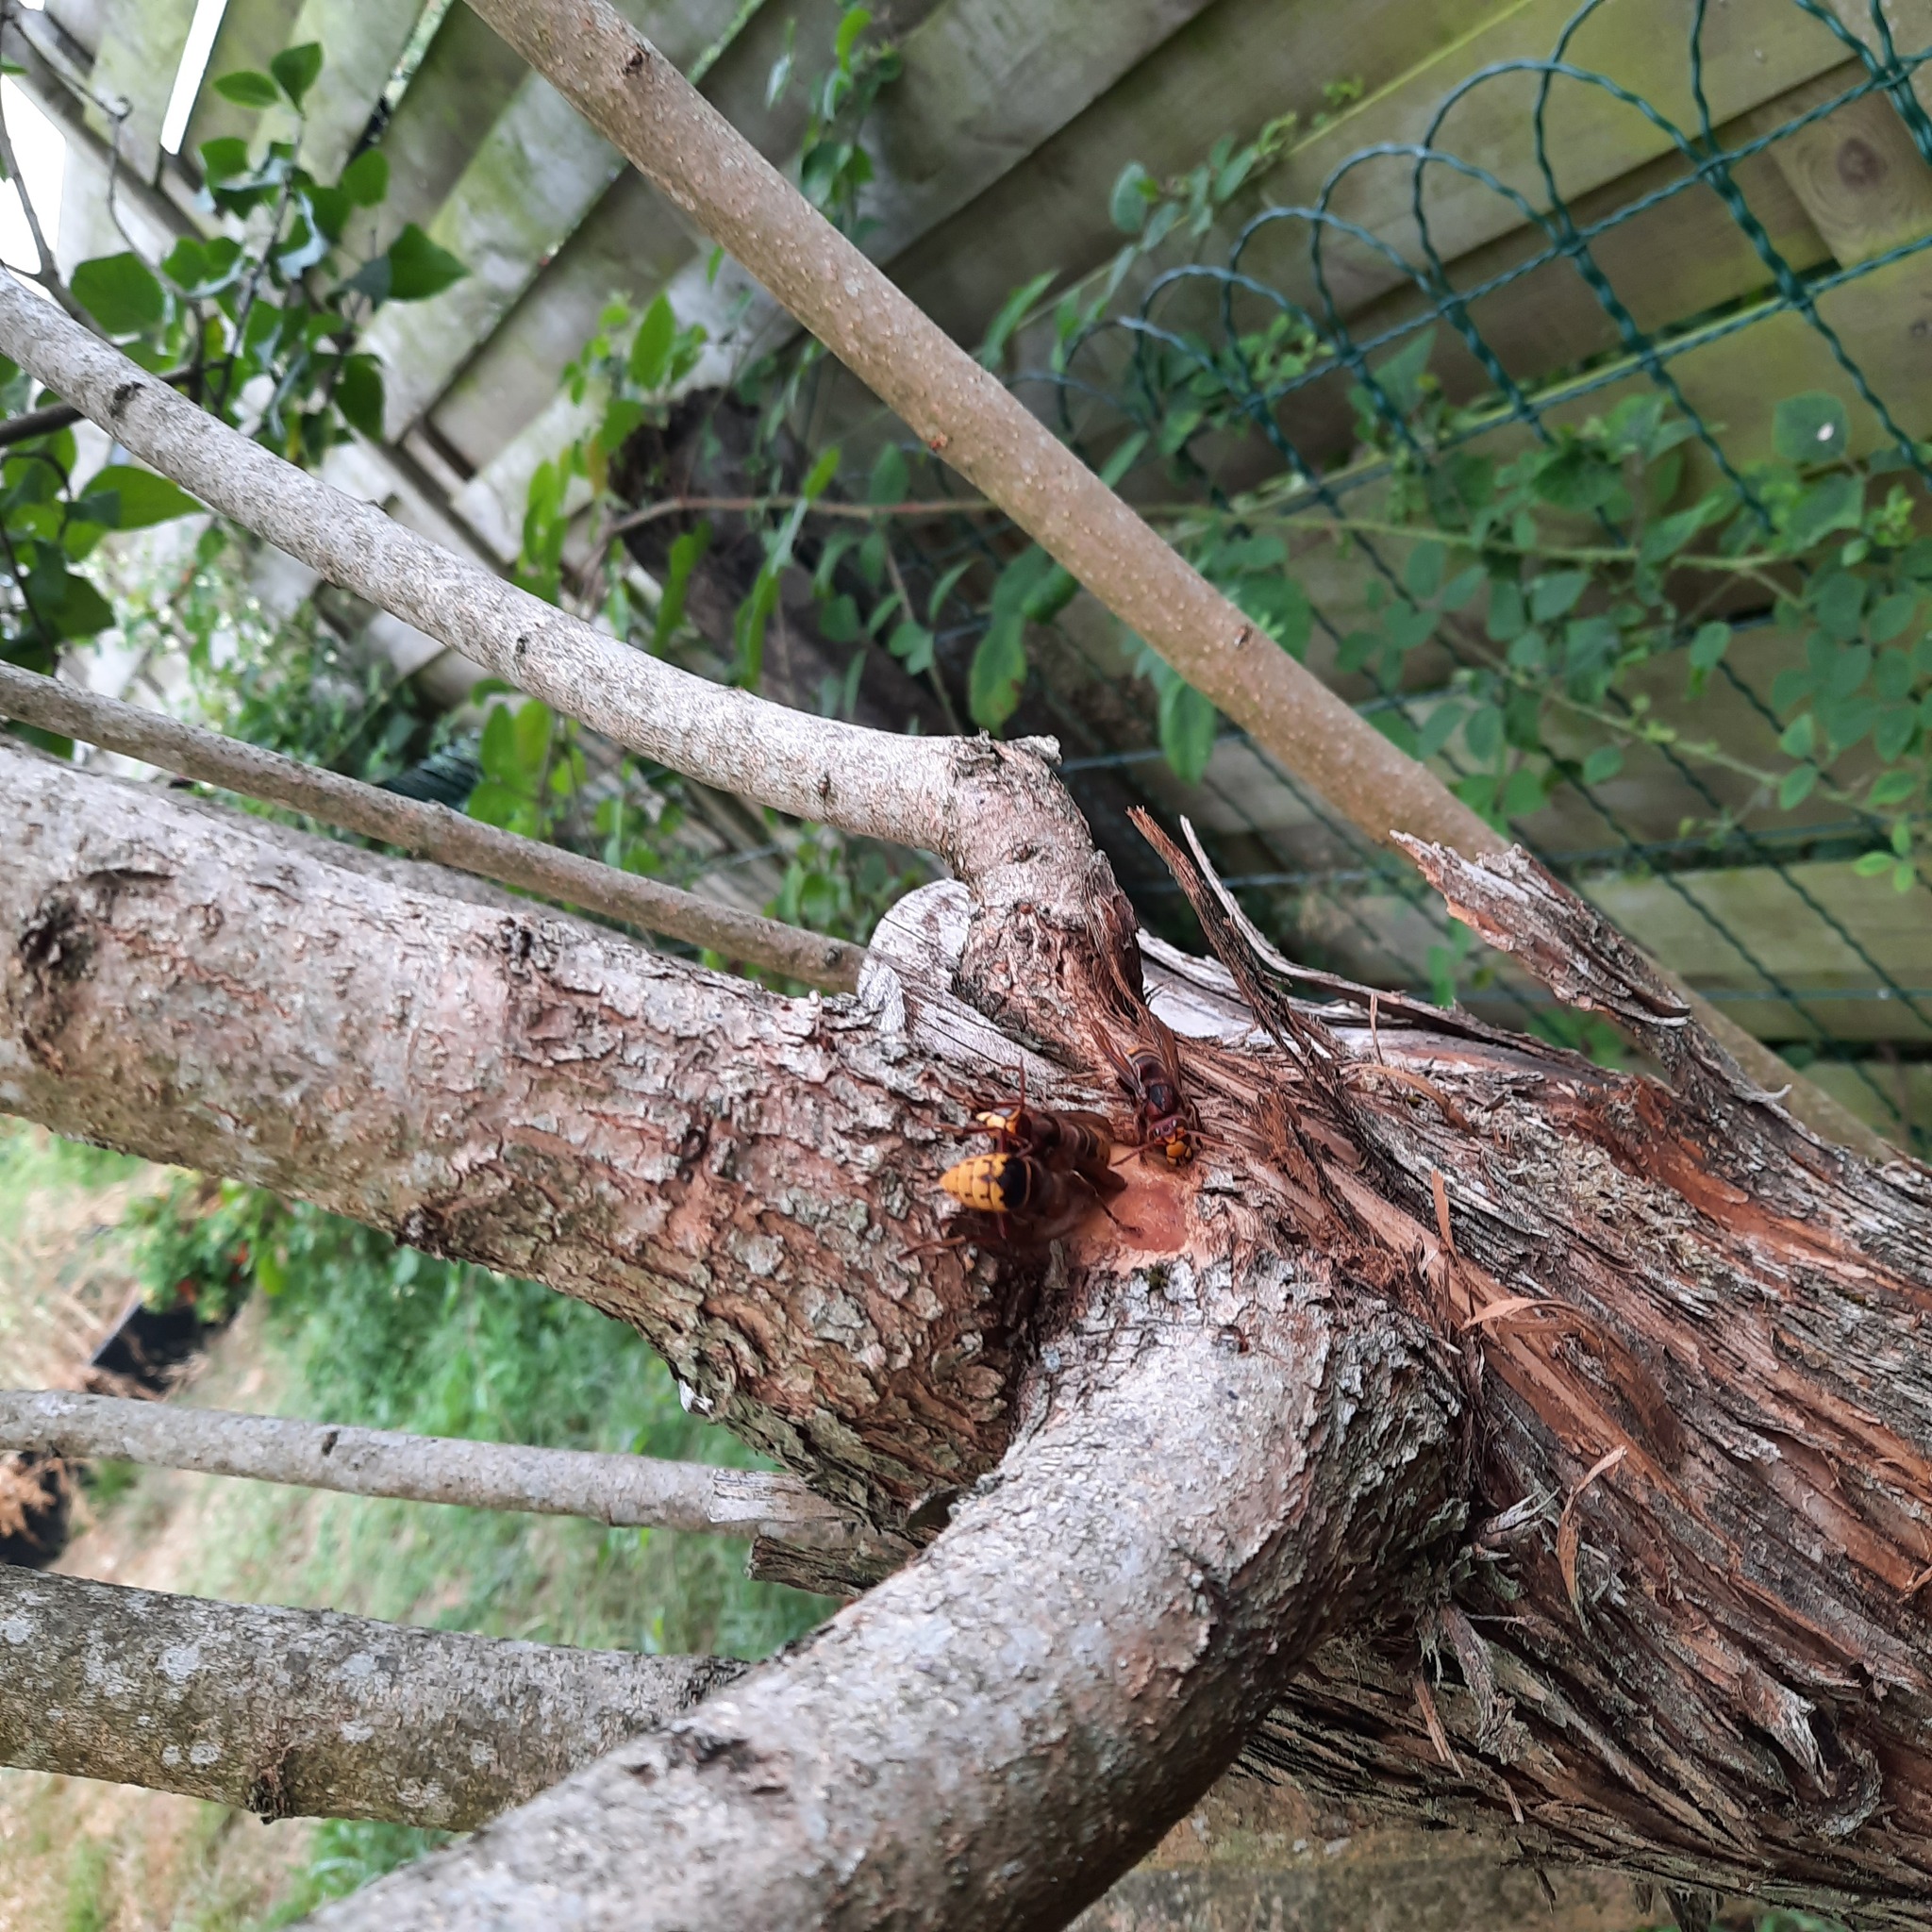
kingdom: Animalia
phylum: Arthropoda
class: Insecta
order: Hymenoptera
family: Vespidae
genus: Vespa
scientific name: Vespa crabro
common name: Hornet
